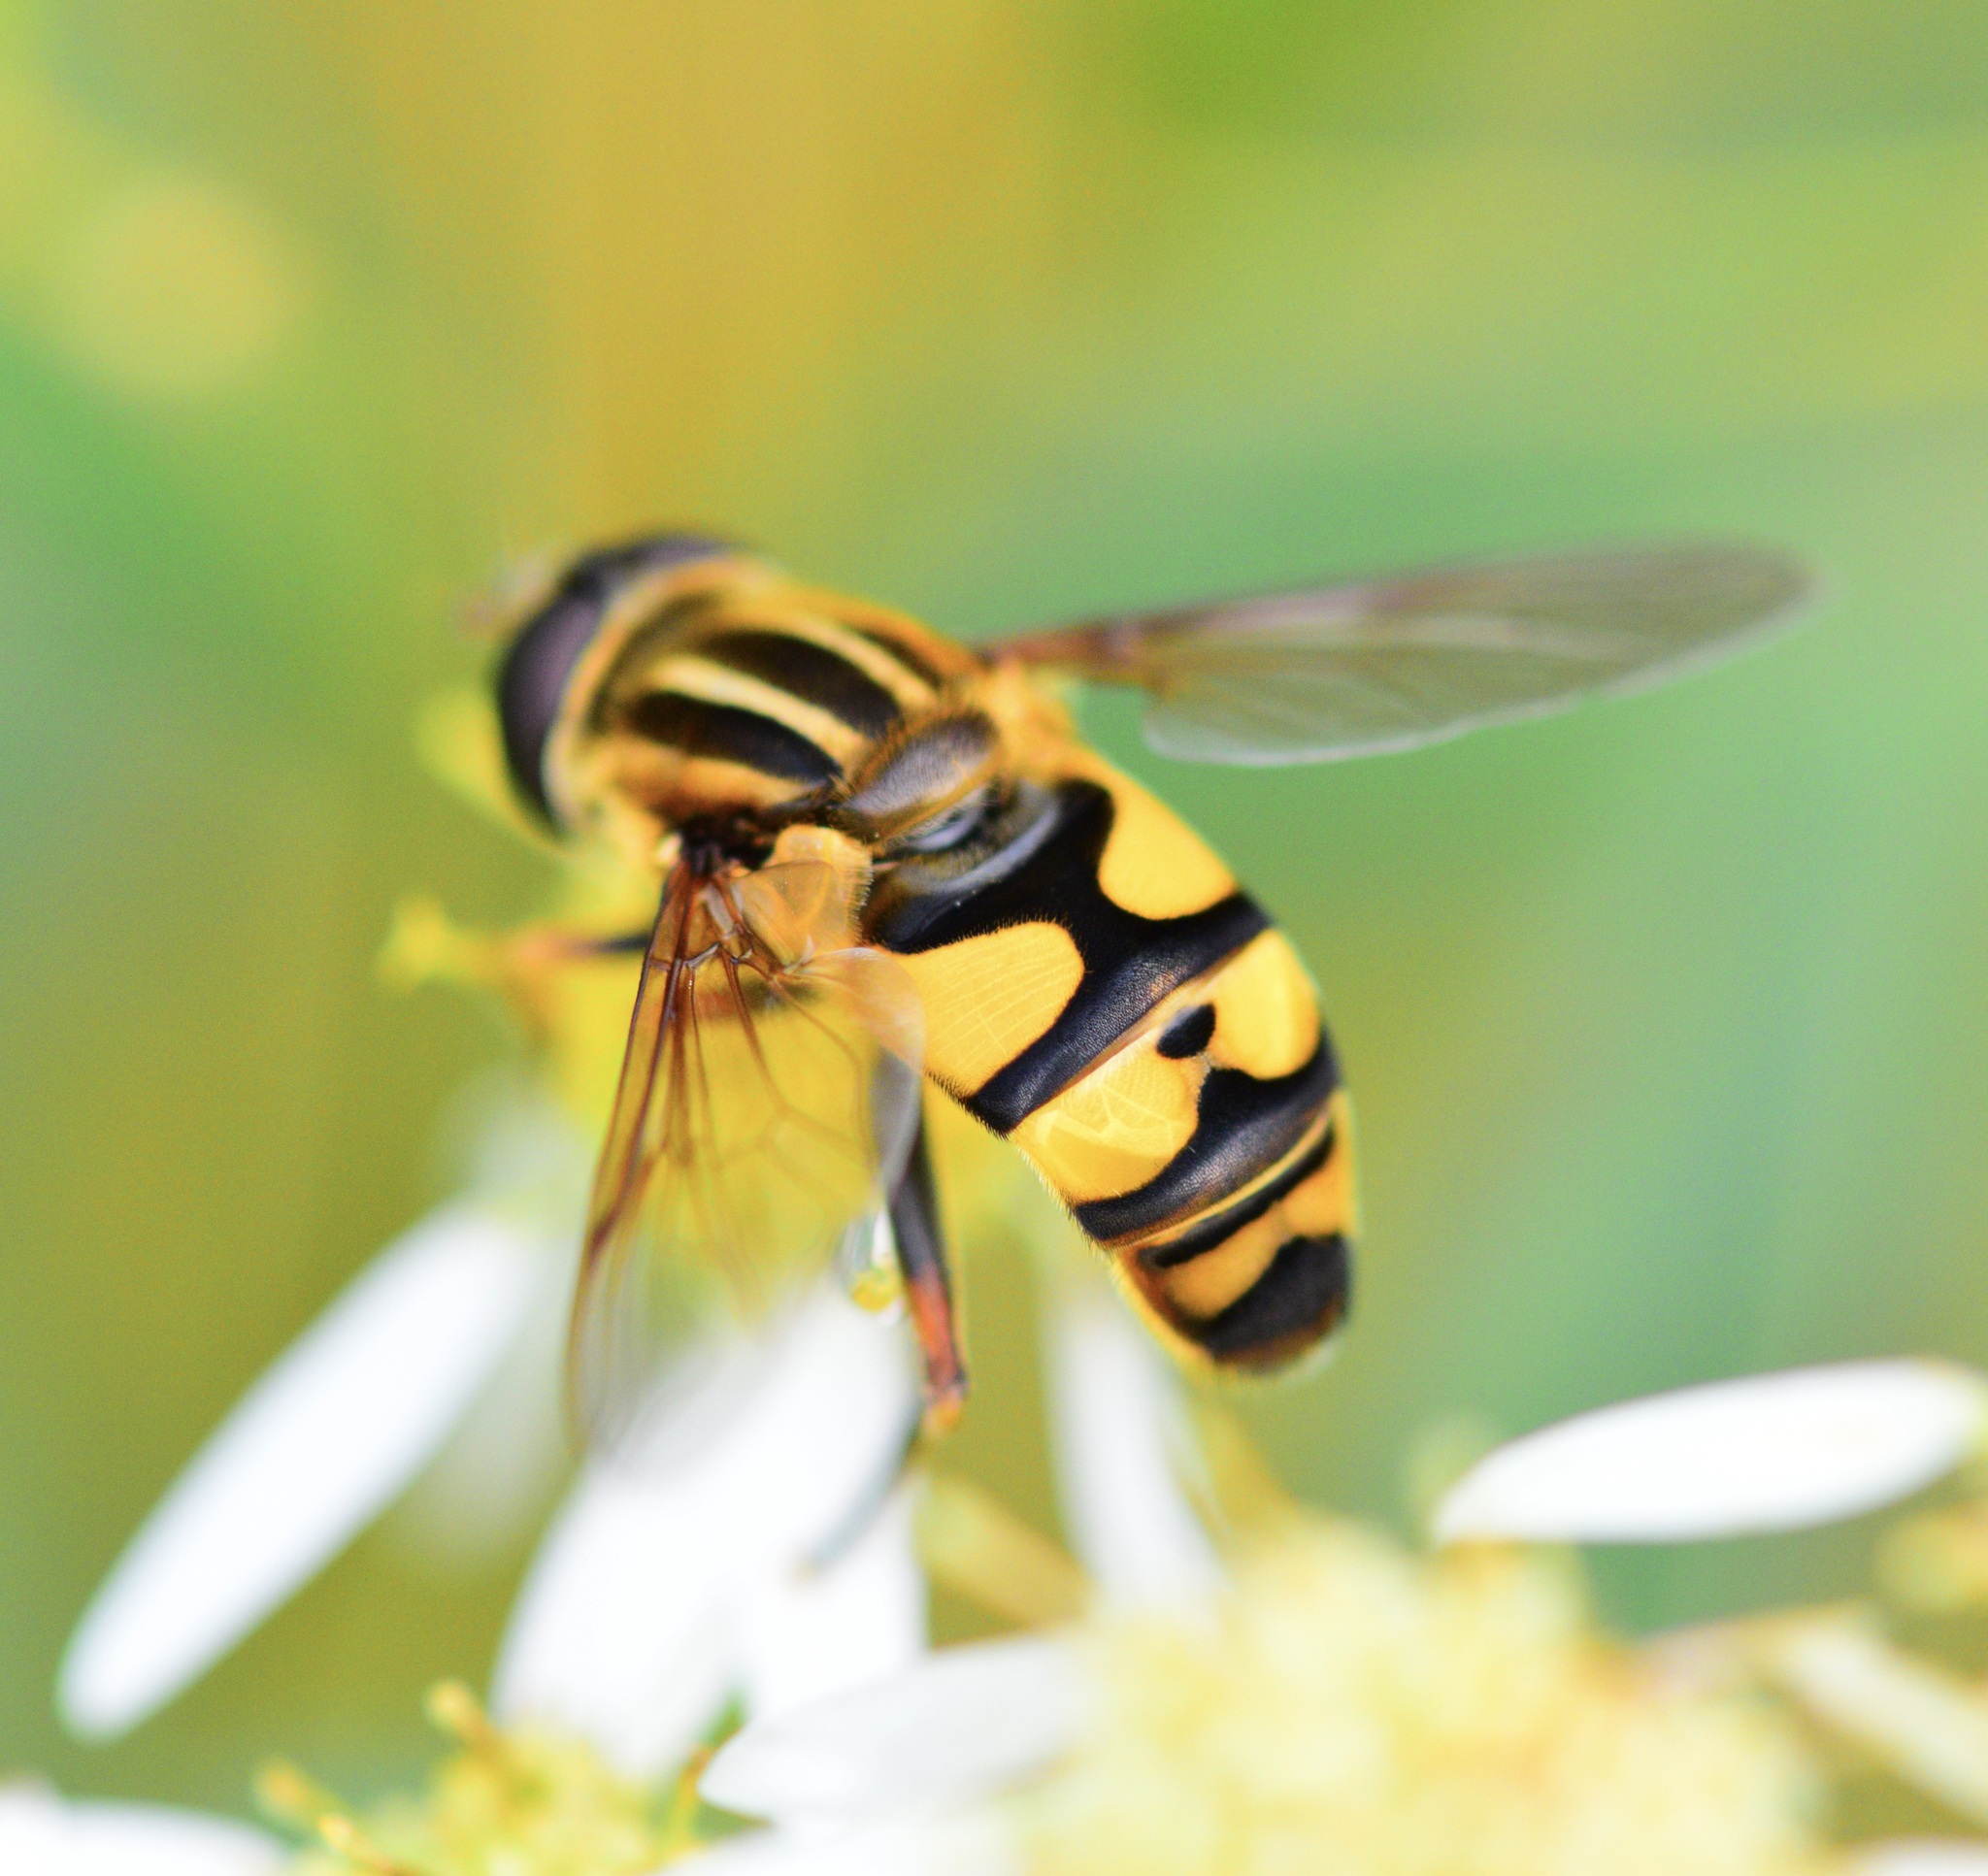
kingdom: Animalia
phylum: Arthropoda
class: Insecta
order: Diptera
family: Syrphidae
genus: Helophilus
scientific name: Helophilus fasciatus
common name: Narrow-headed marsh fly
